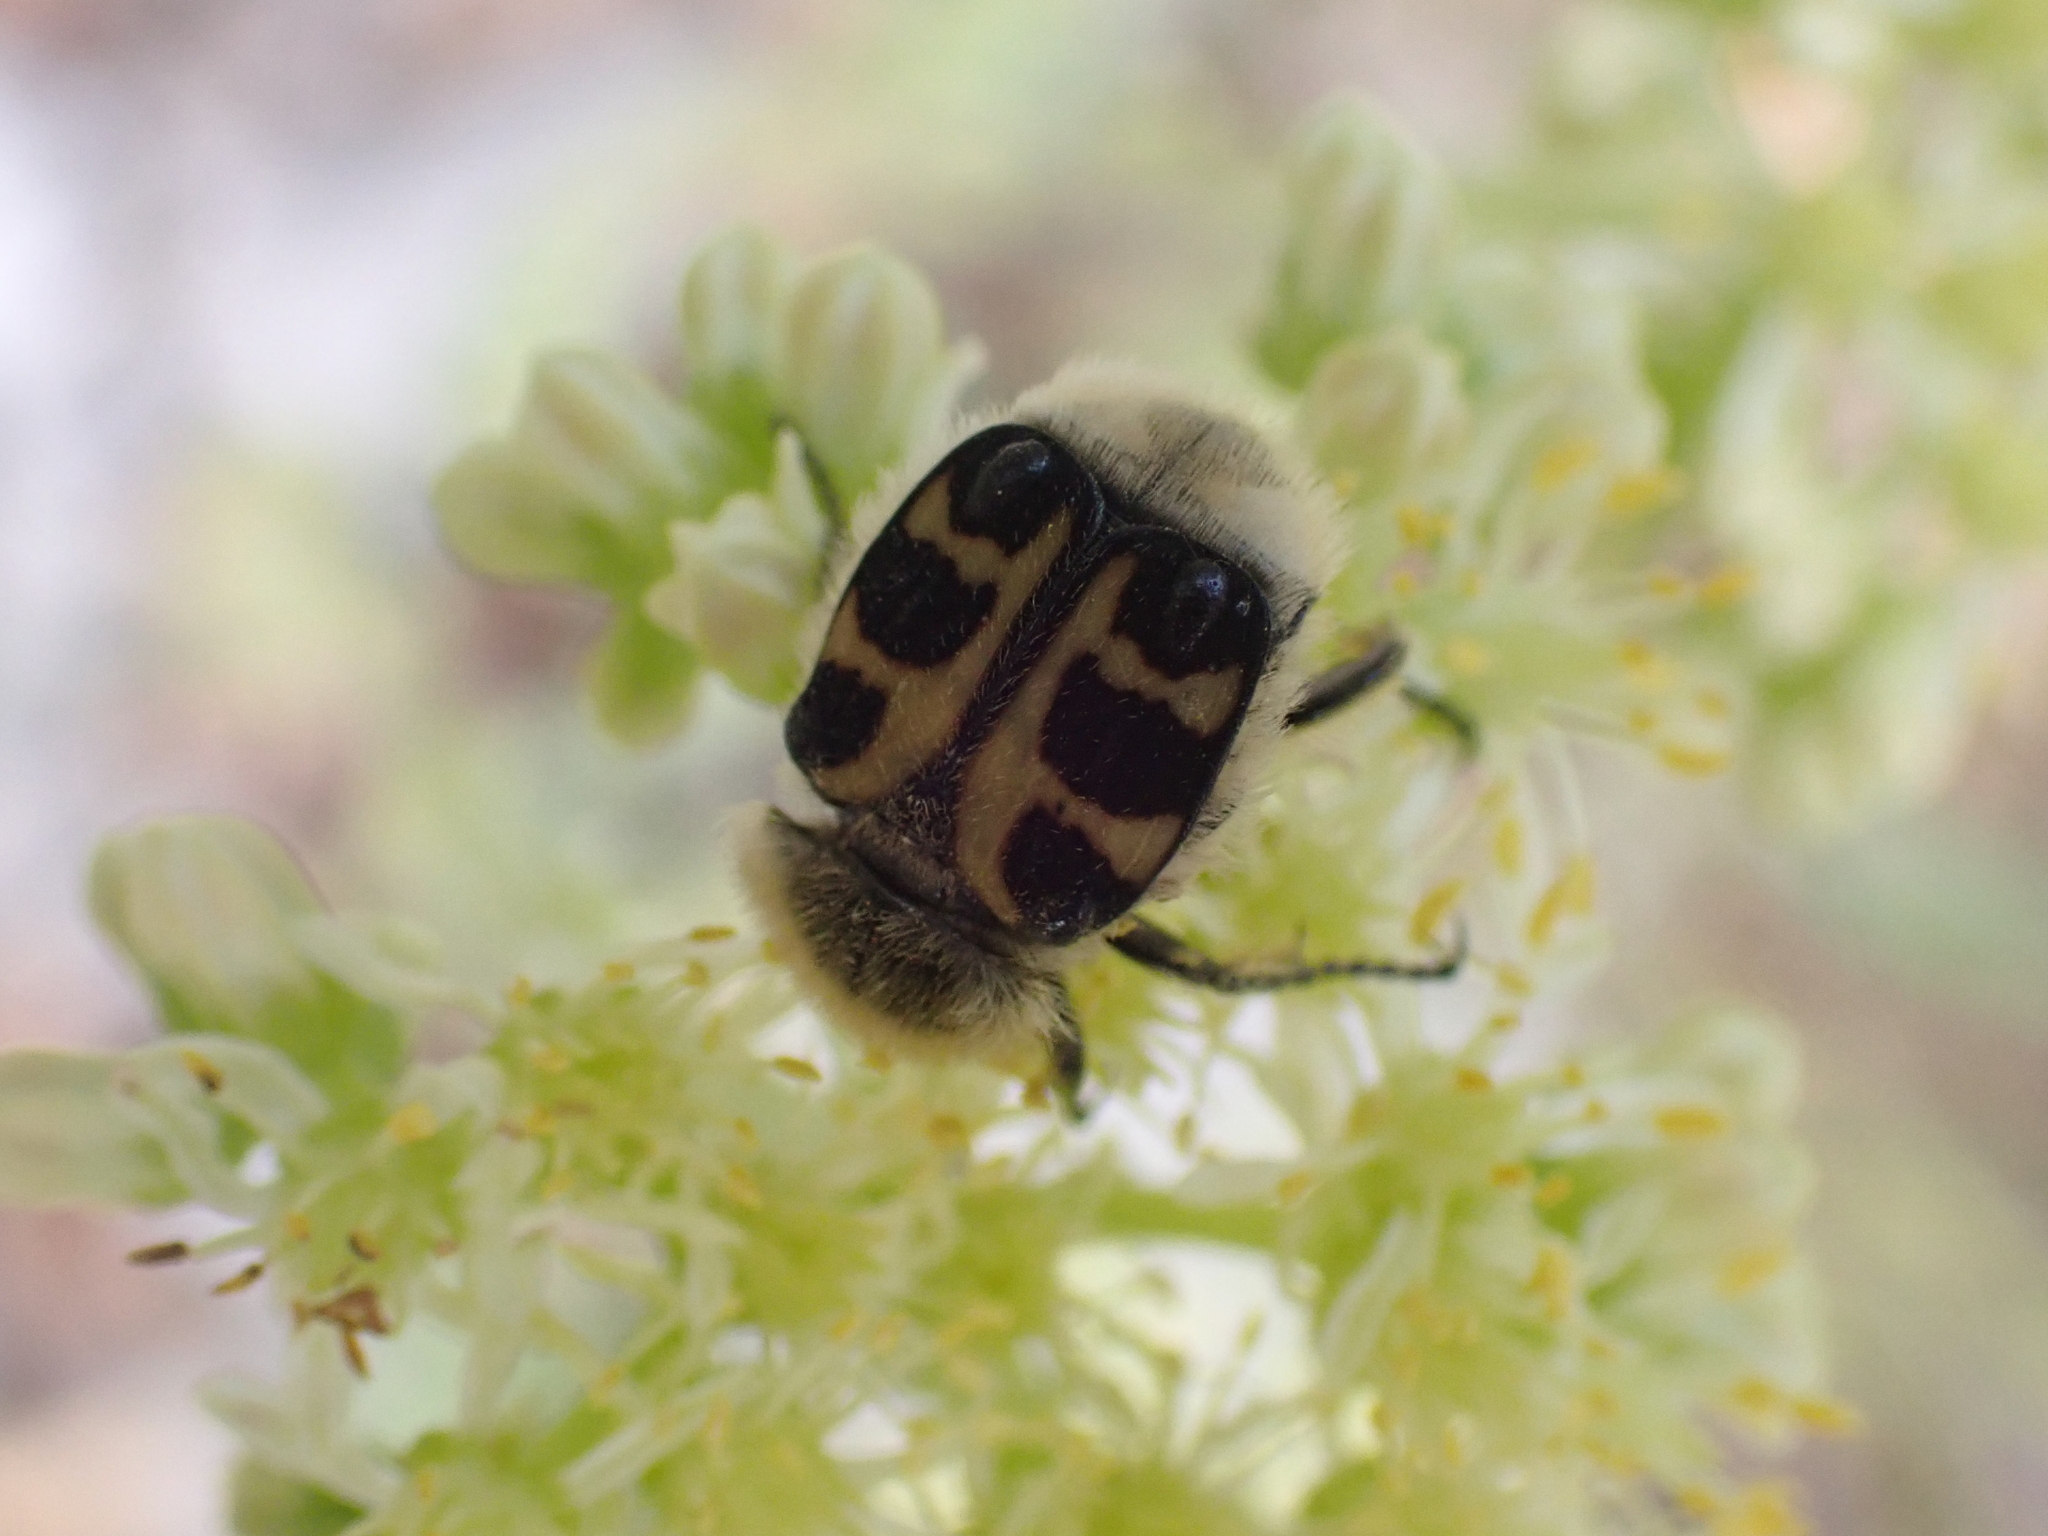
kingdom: Animalia
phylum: Arthropoda
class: Insecta
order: Coleoptera
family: Scarabaeidae
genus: Trichius
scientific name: Trichius gallicus
